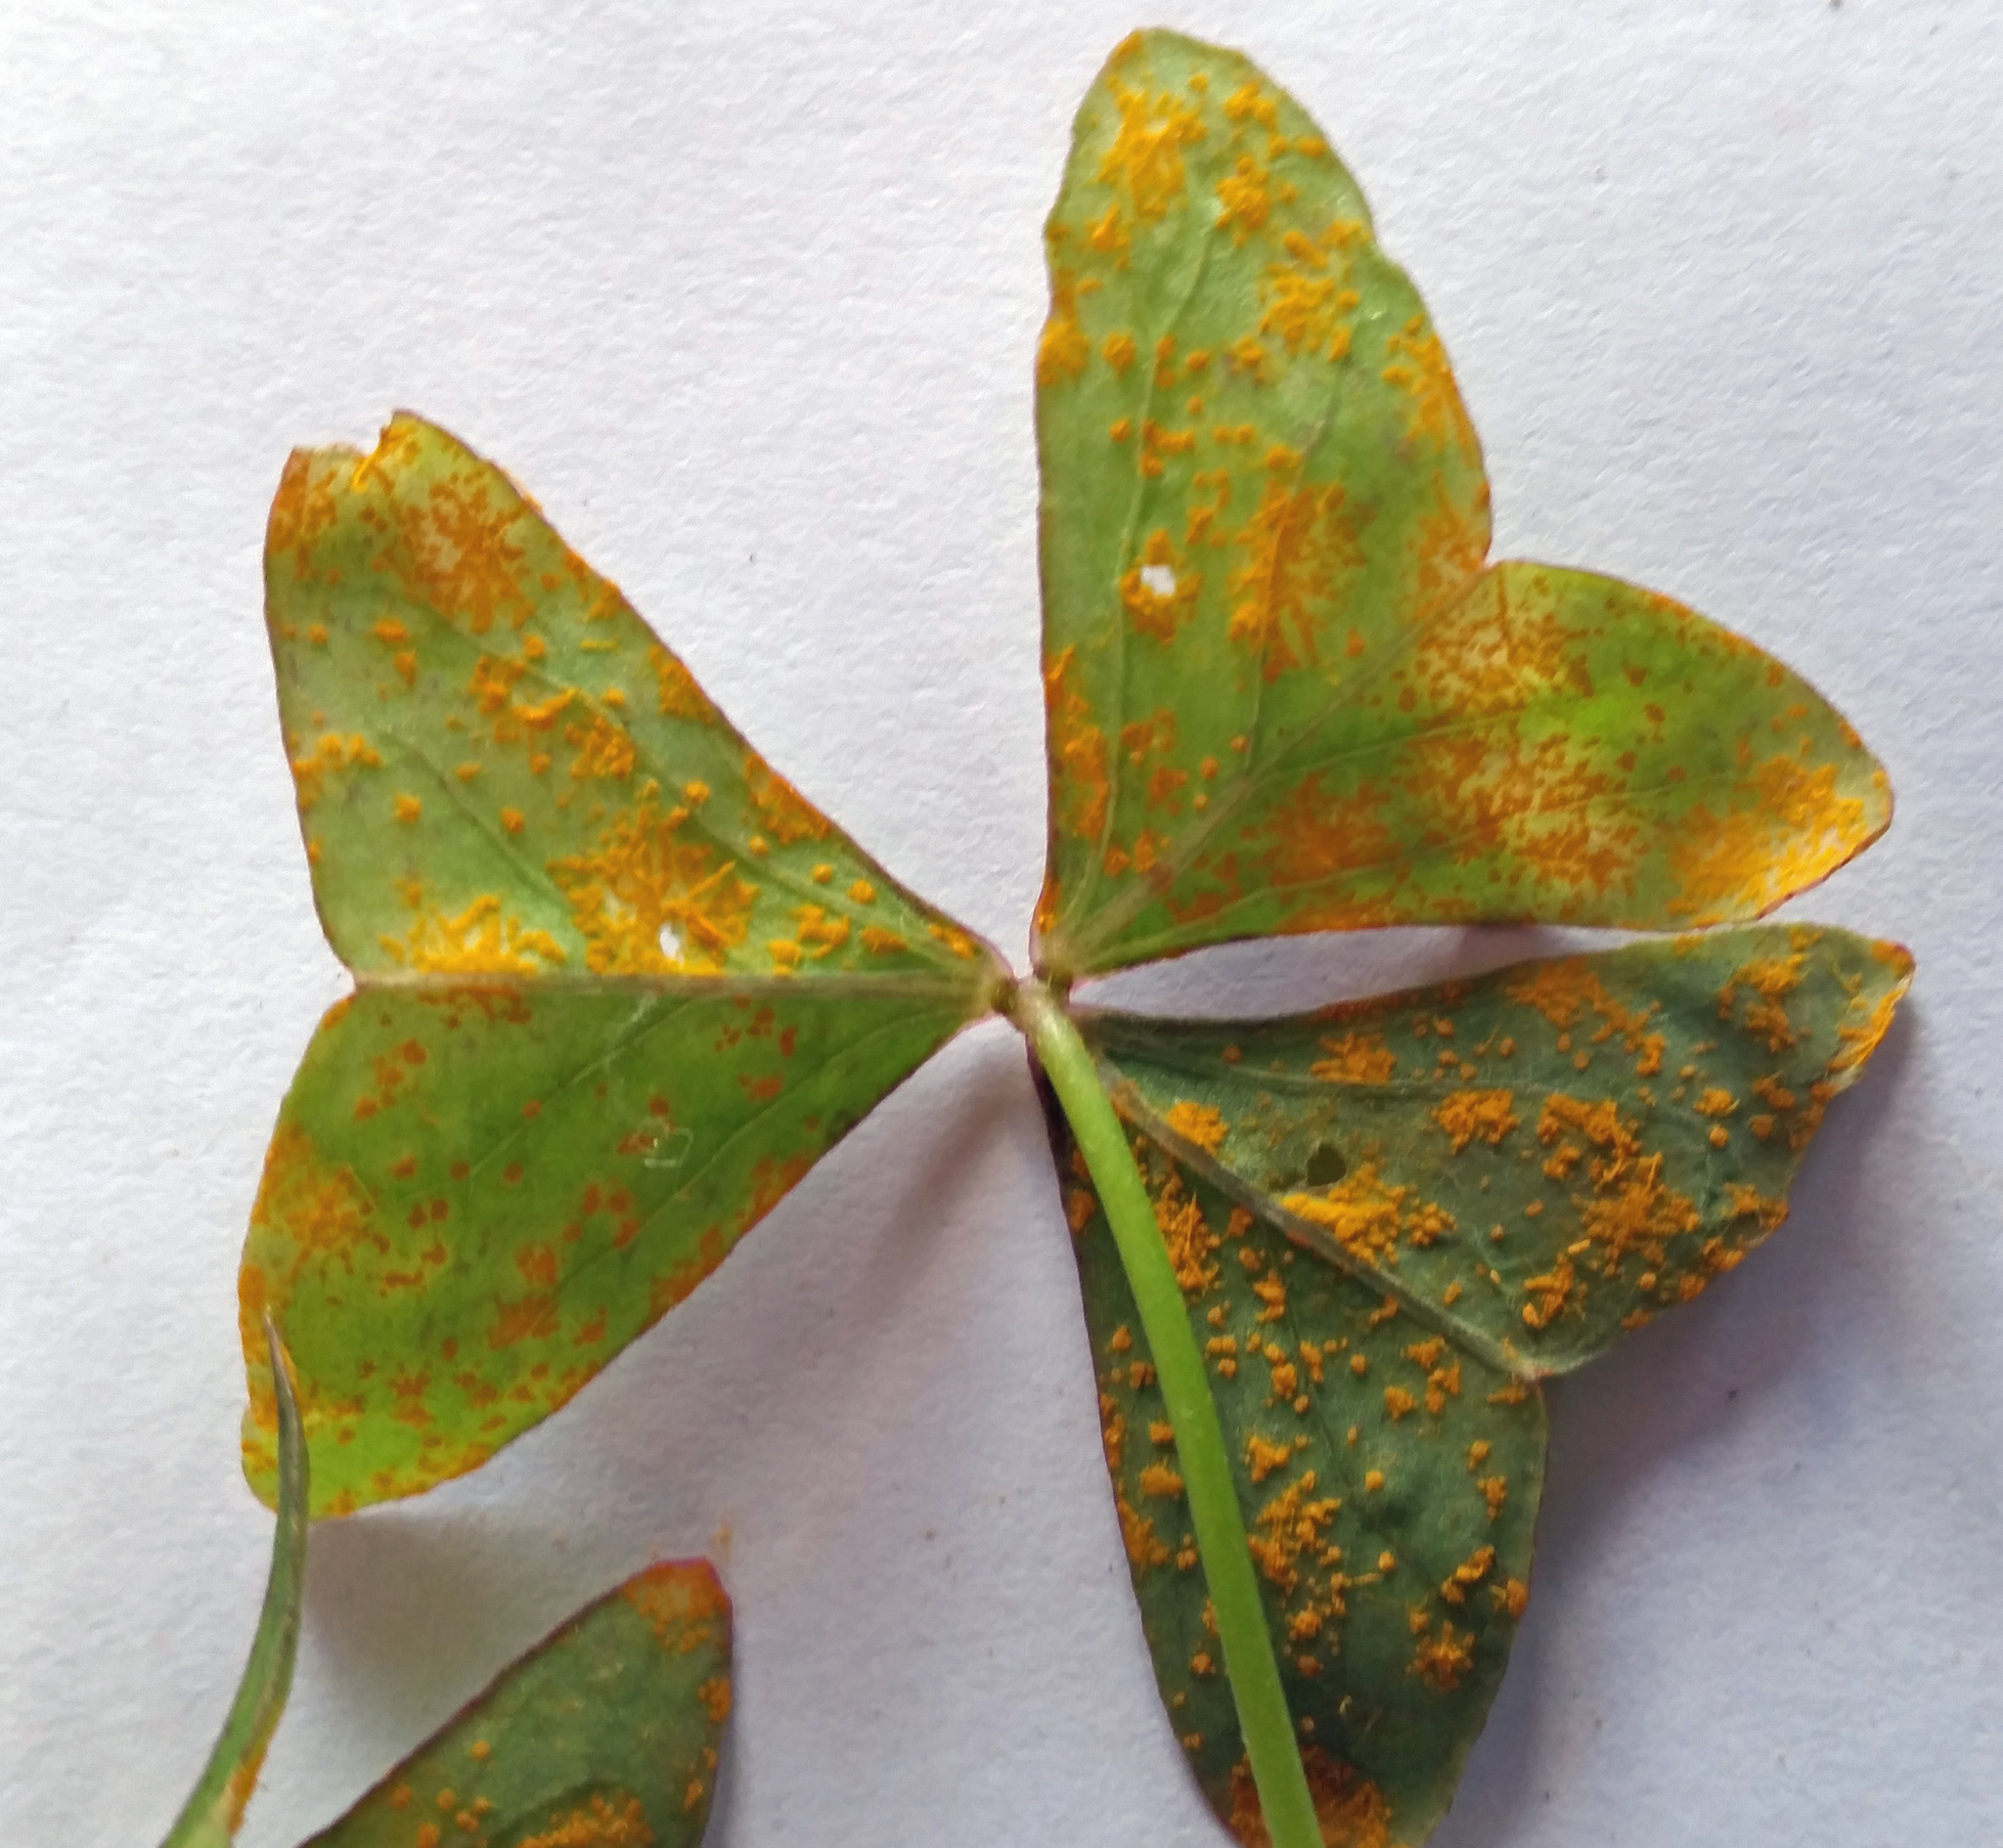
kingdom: Fungi
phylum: Basidiomycota
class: Pucciniomycetes
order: Pucciniales
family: Pucciniaceae
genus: Puccinia
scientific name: Puccinia oxalidis
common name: Oxalis rust
